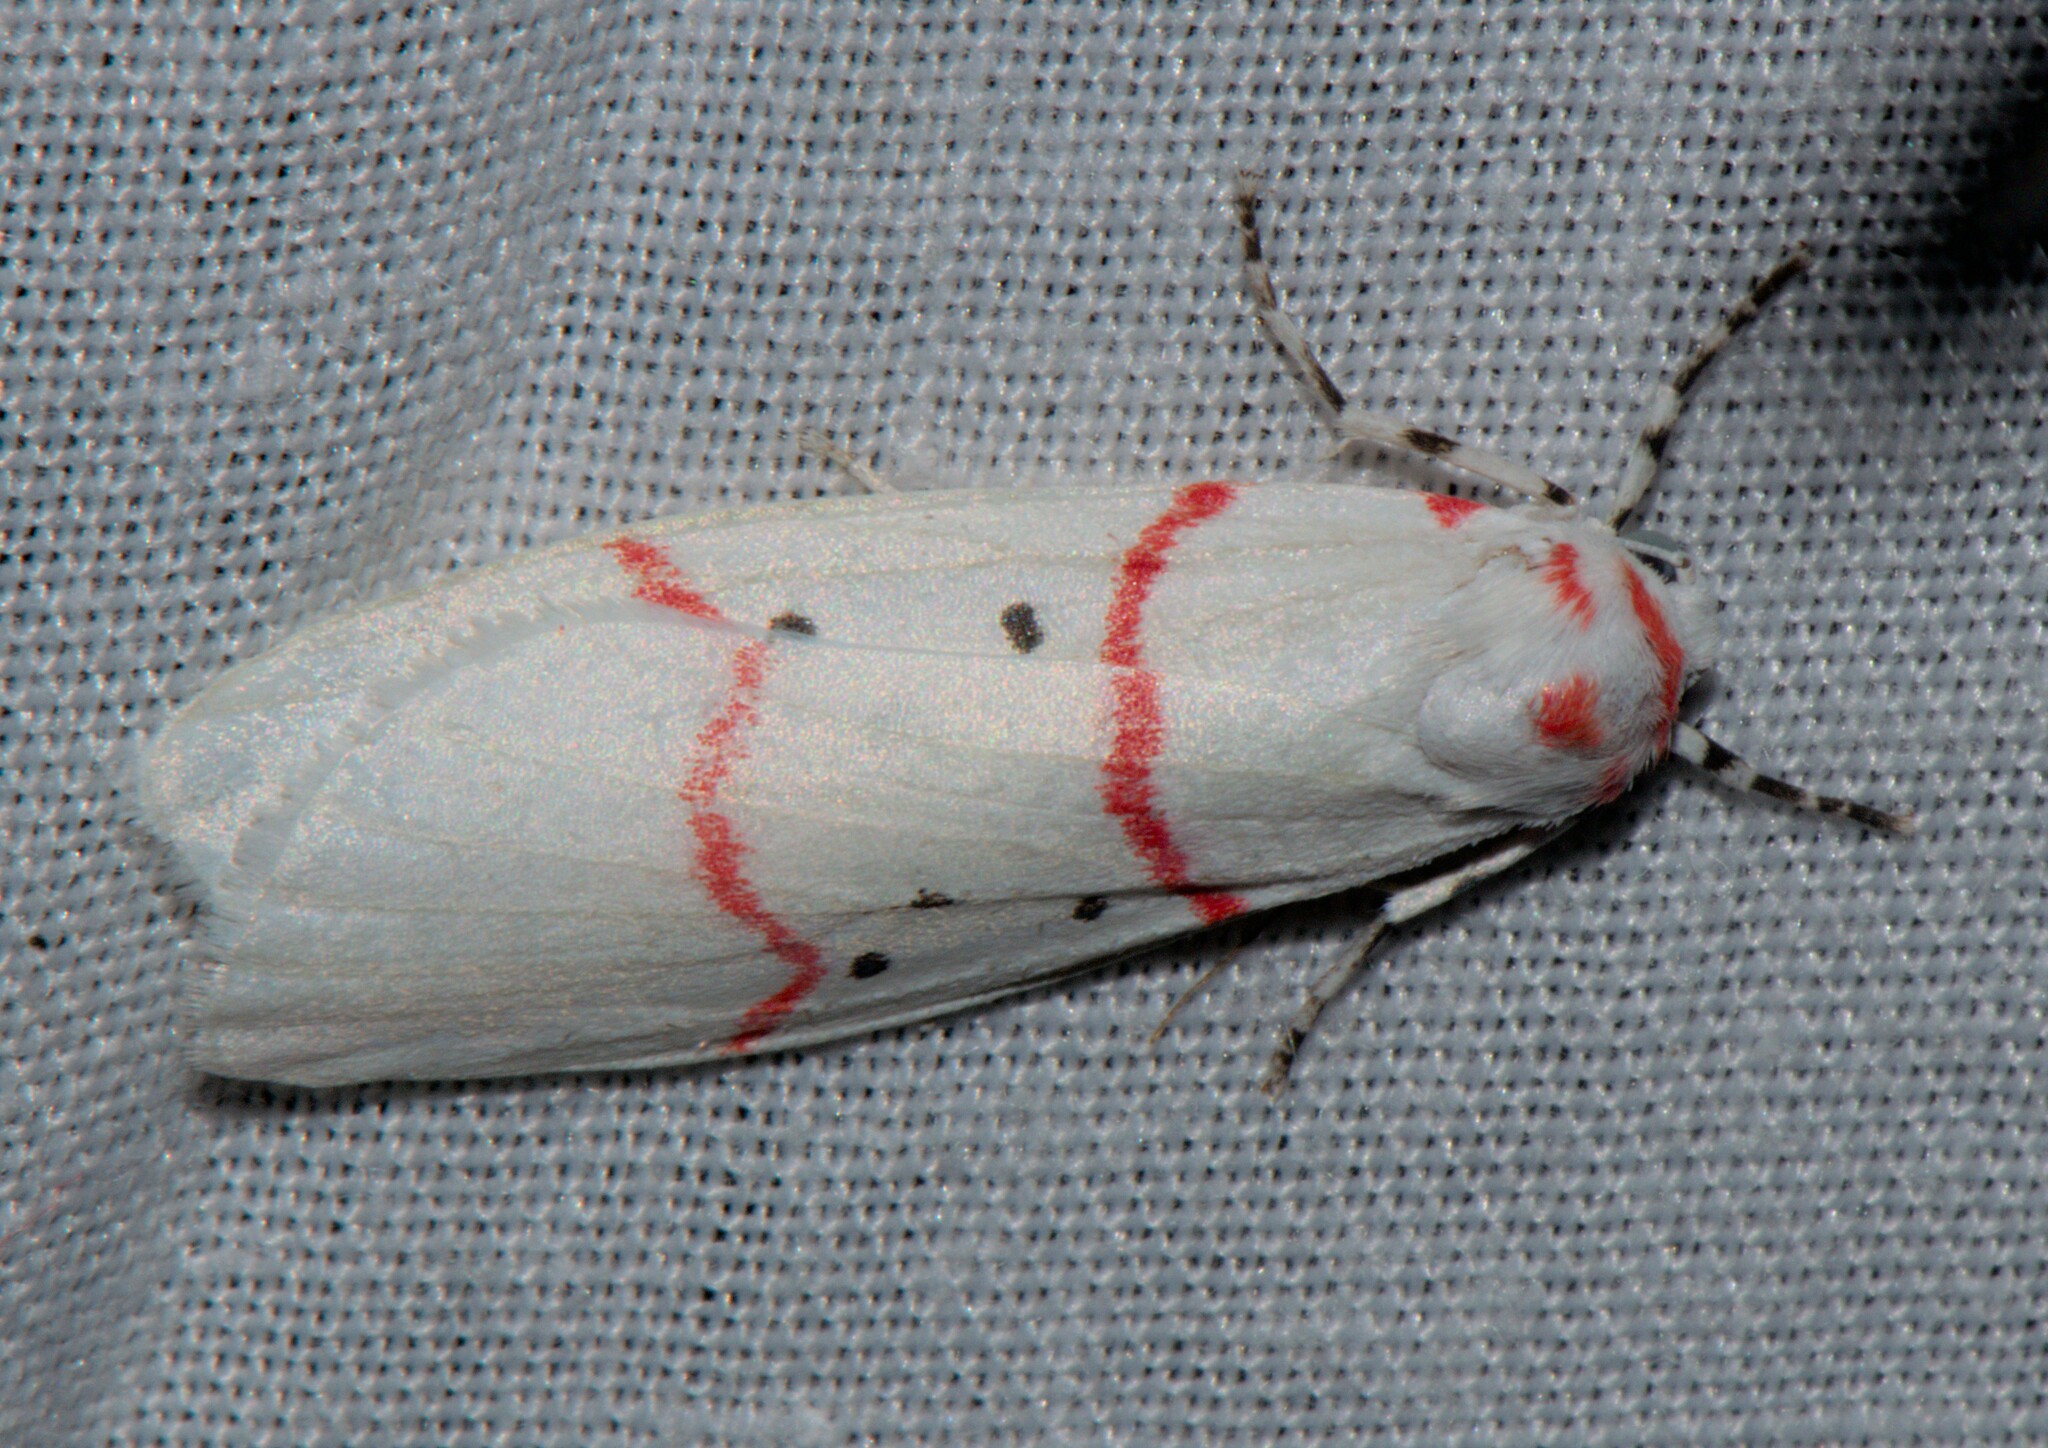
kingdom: Animalia
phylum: Arthropoda
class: Insecta
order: Lepidoptera
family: Erebidae
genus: Cyana
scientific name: Cyana adita
